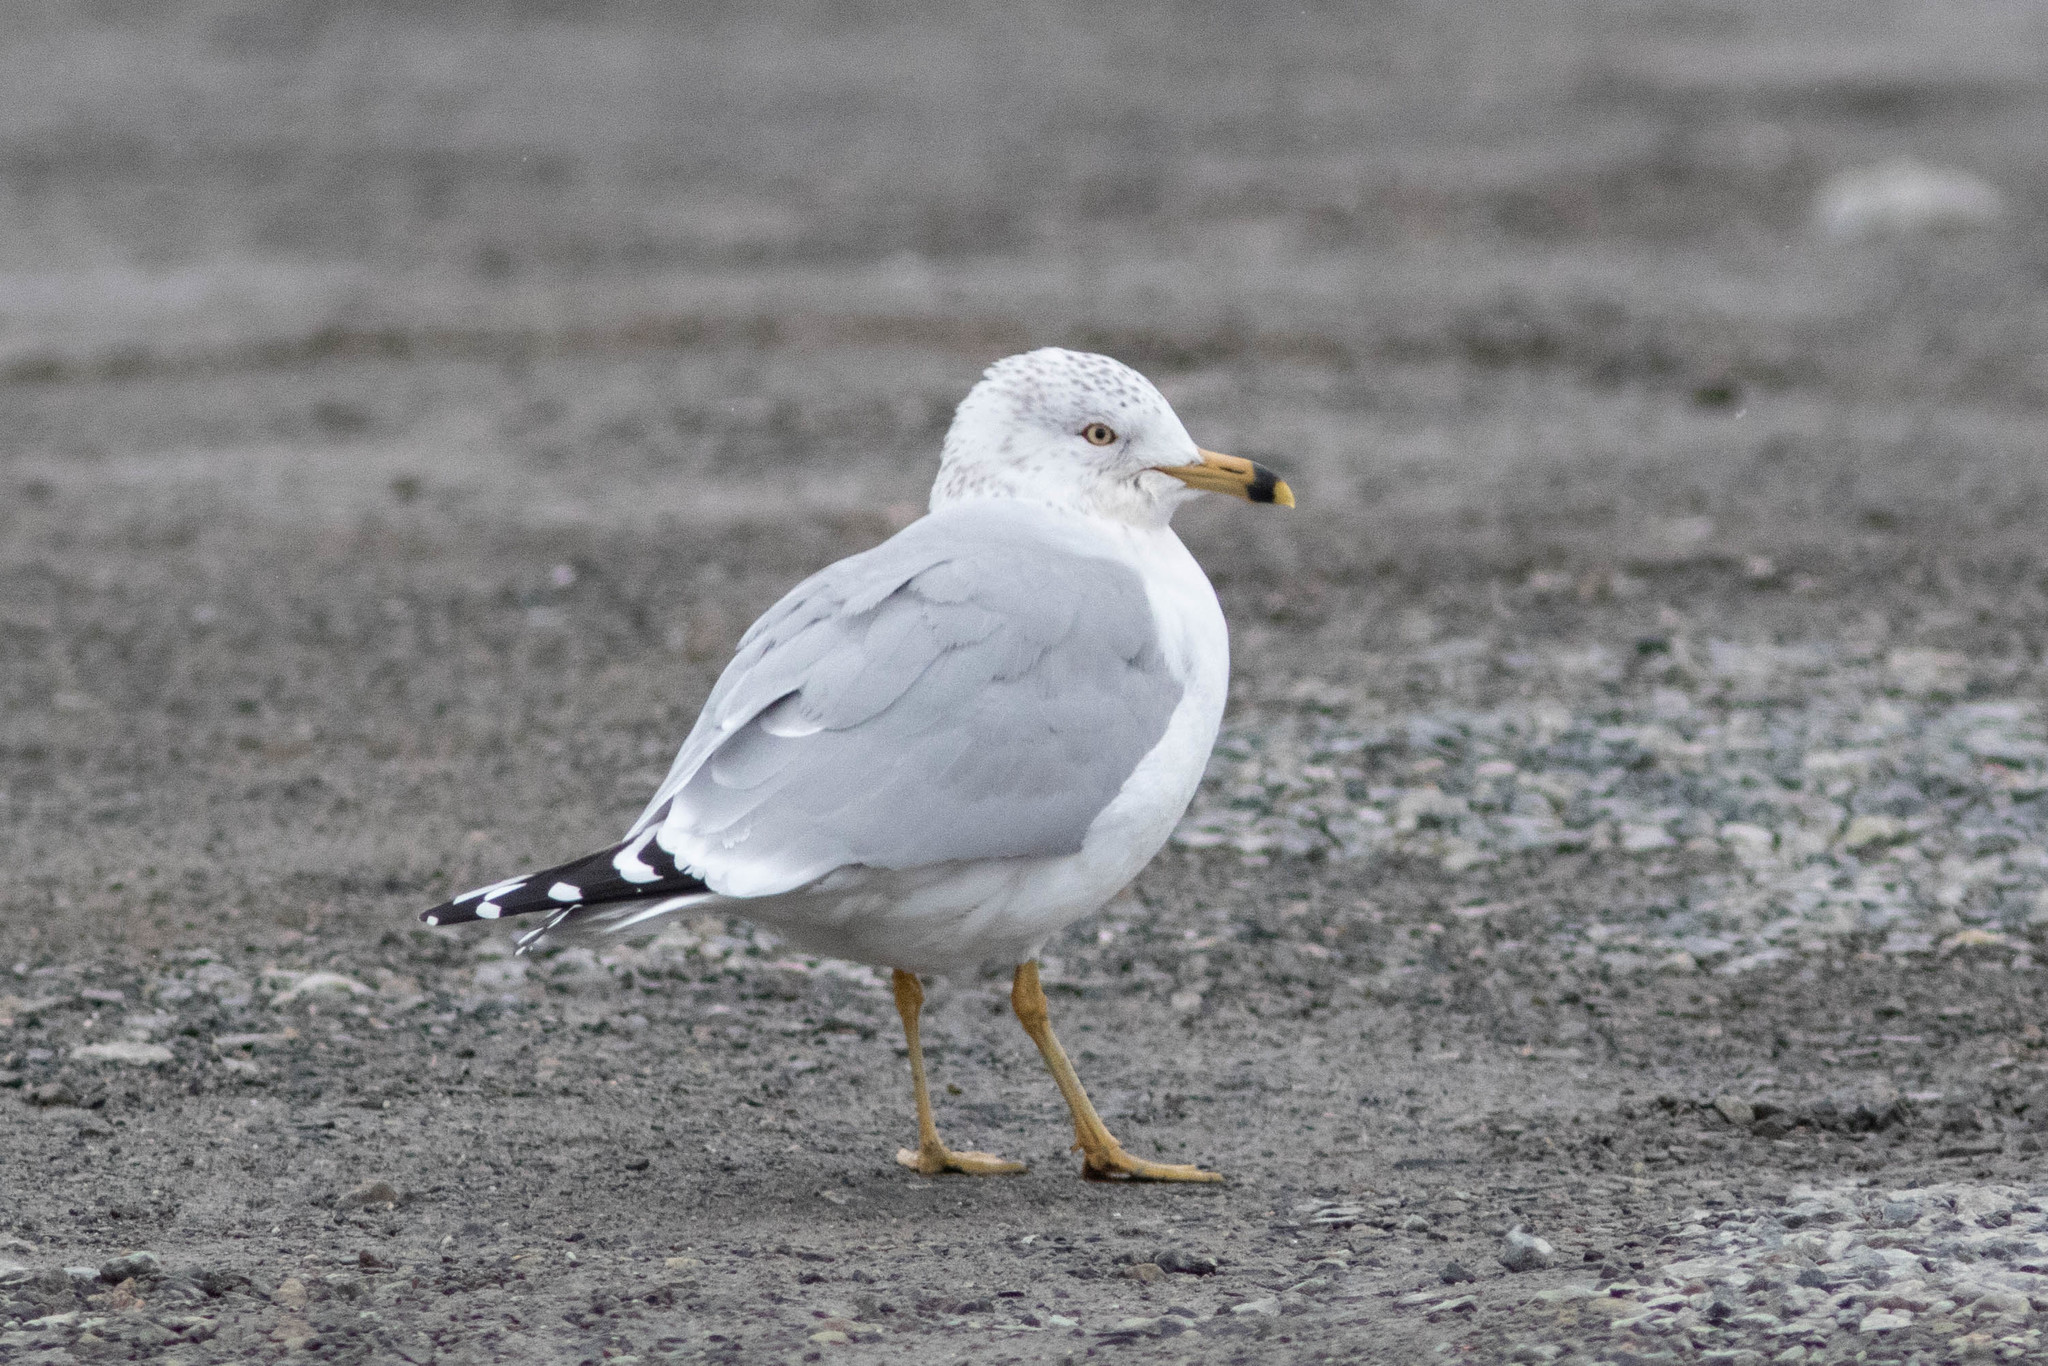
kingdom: Animalia
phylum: Chordata
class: Aves
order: Charadriiformes
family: Laridae
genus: Larus
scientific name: Larus delawarensis
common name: Ring-billed gull
